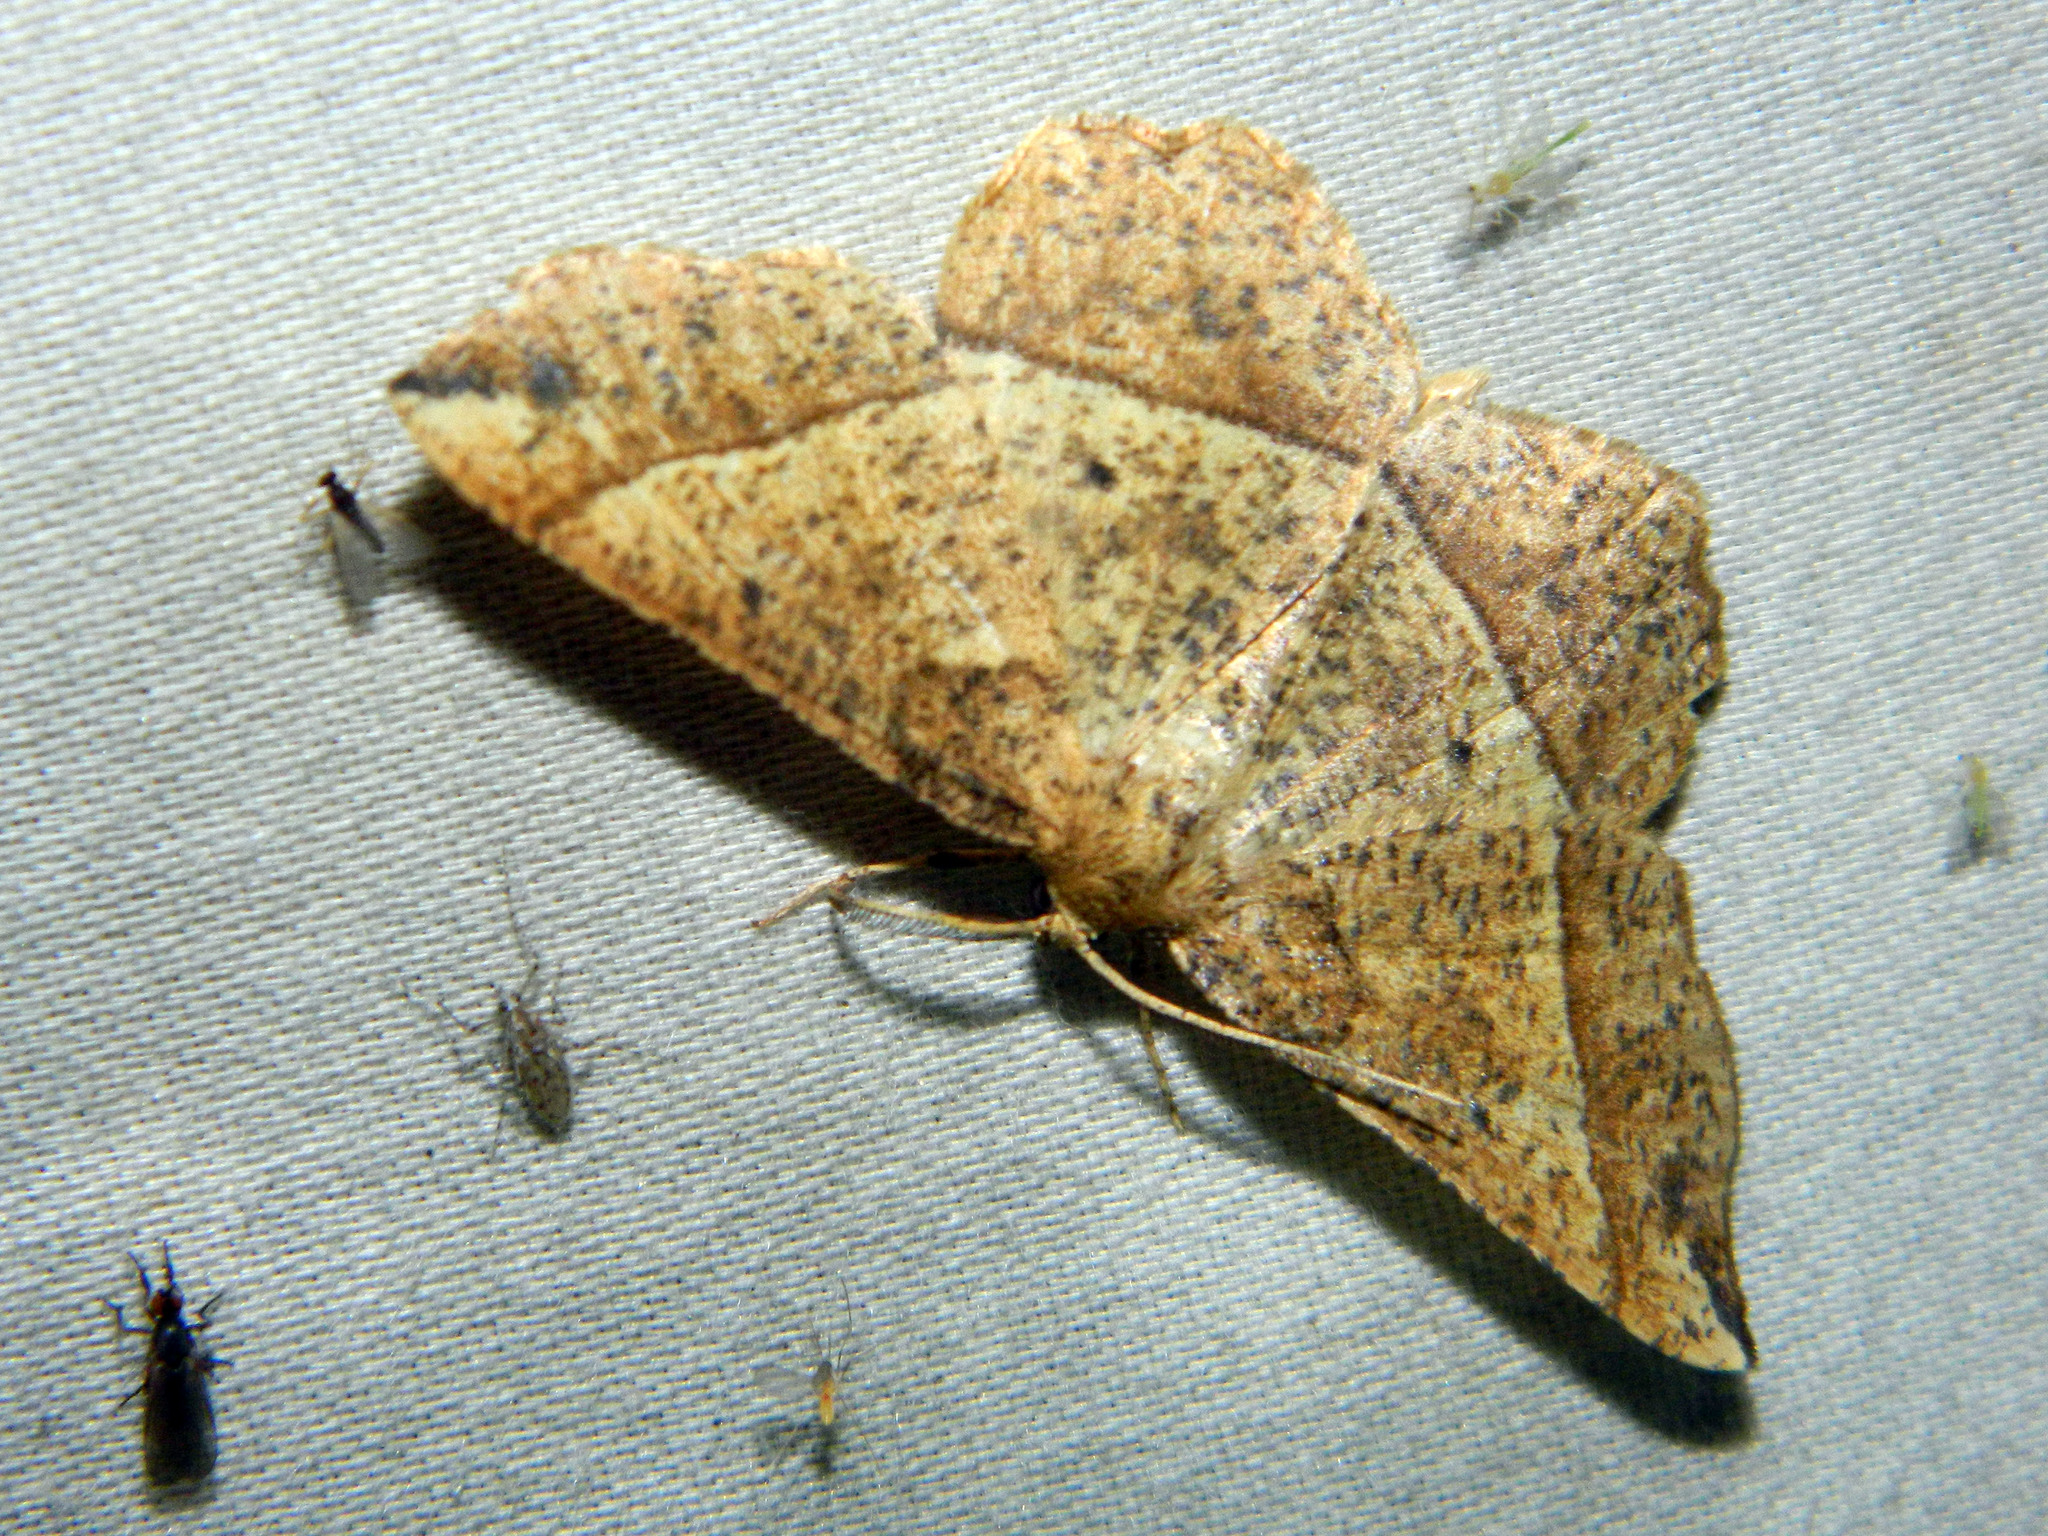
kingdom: Animalia
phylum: Arthropoda
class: Insecta
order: Lepidoptera
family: Geometridae
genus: Euchlaena
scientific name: Euchlaena tigrinaria
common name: Mottled euchlaena moth
